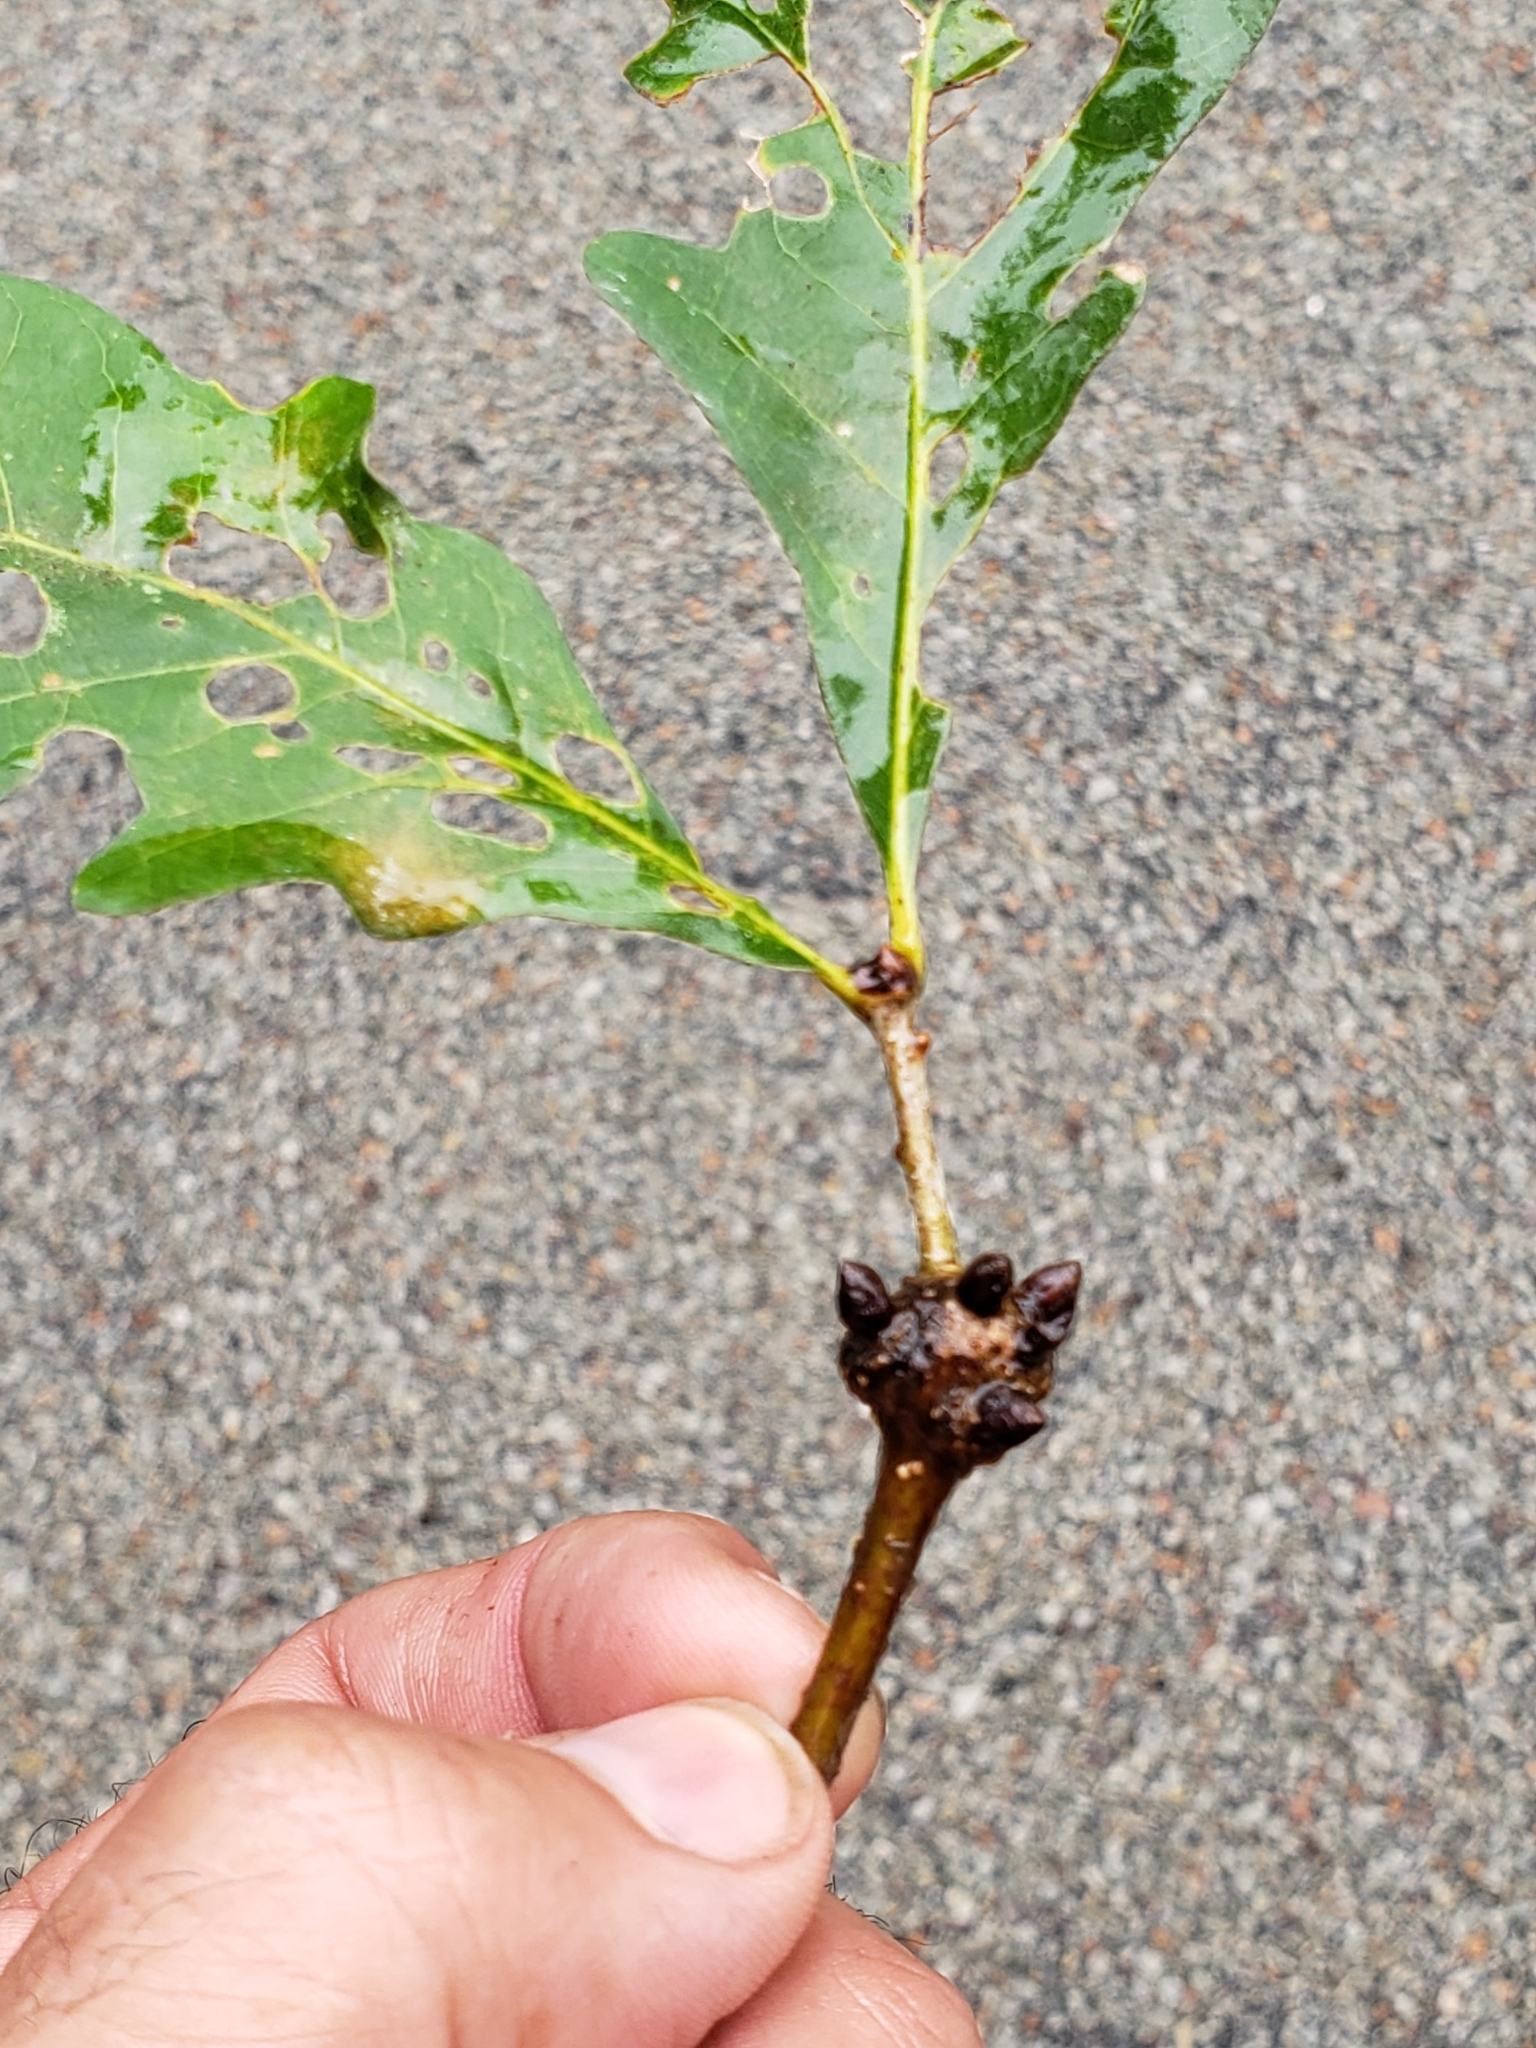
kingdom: Animalia
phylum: Arthropoda
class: Insecta
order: Hymenoptera
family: Cynipidae
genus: Callirhytis
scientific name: Callirhytis clavula
